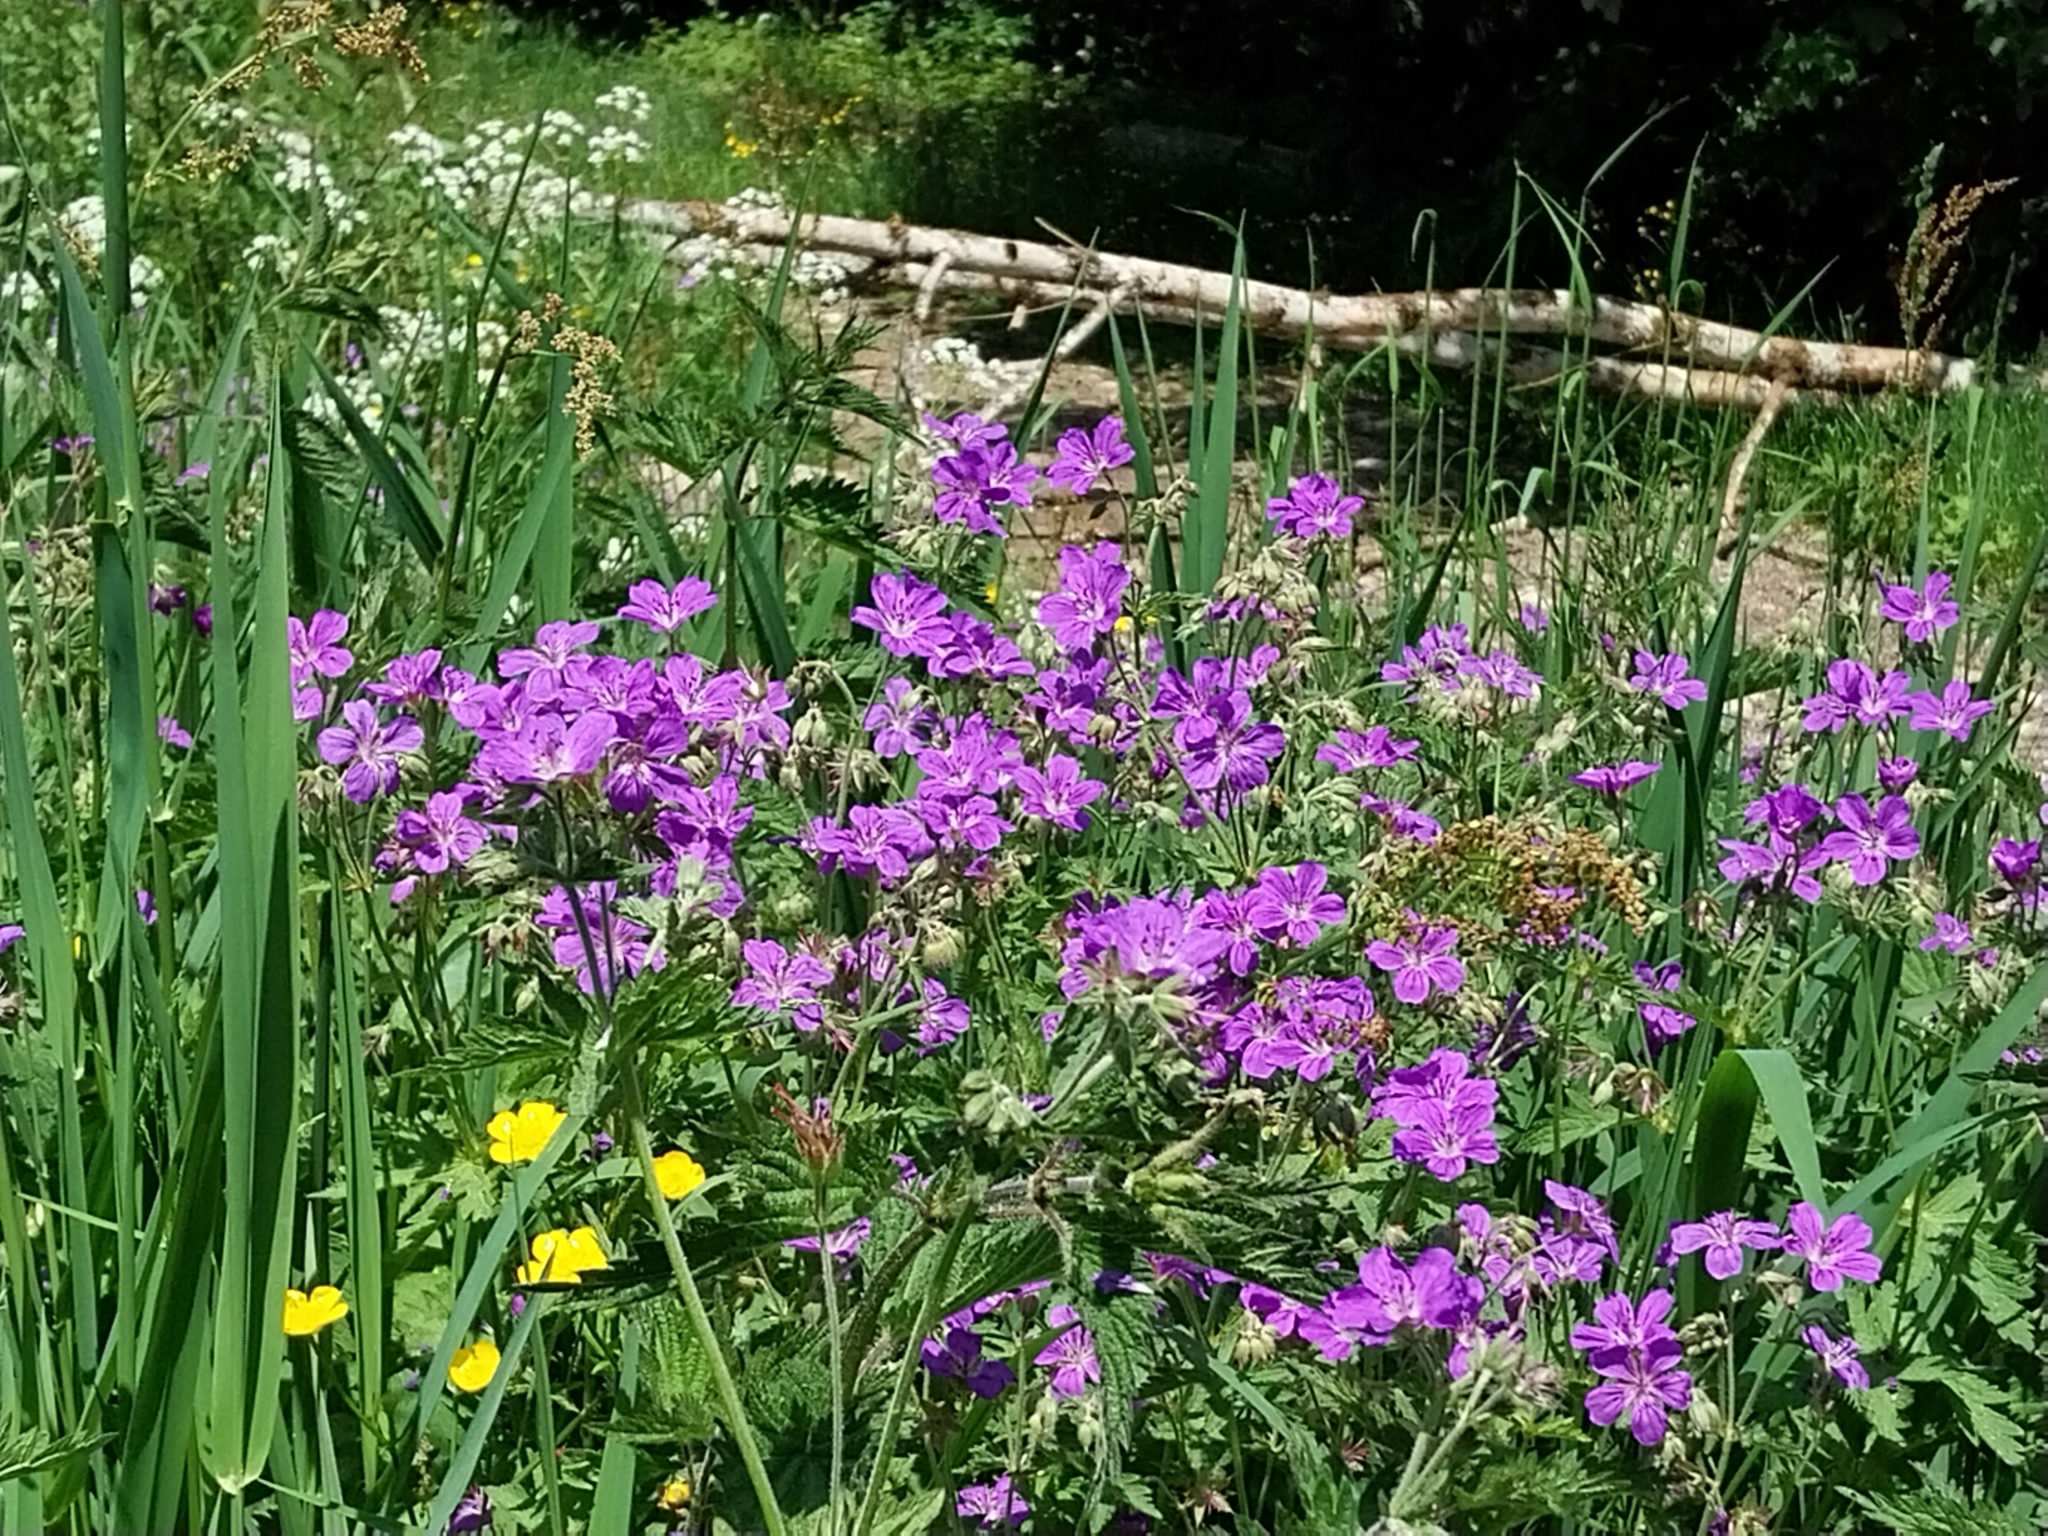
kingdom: Plantae
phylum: Tracheophyta
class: Magnoliopsida
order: Geraniales
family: Geraniaceae
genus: Geranium
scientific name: Geranium sylvaticum
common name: Wood crane's-bill
